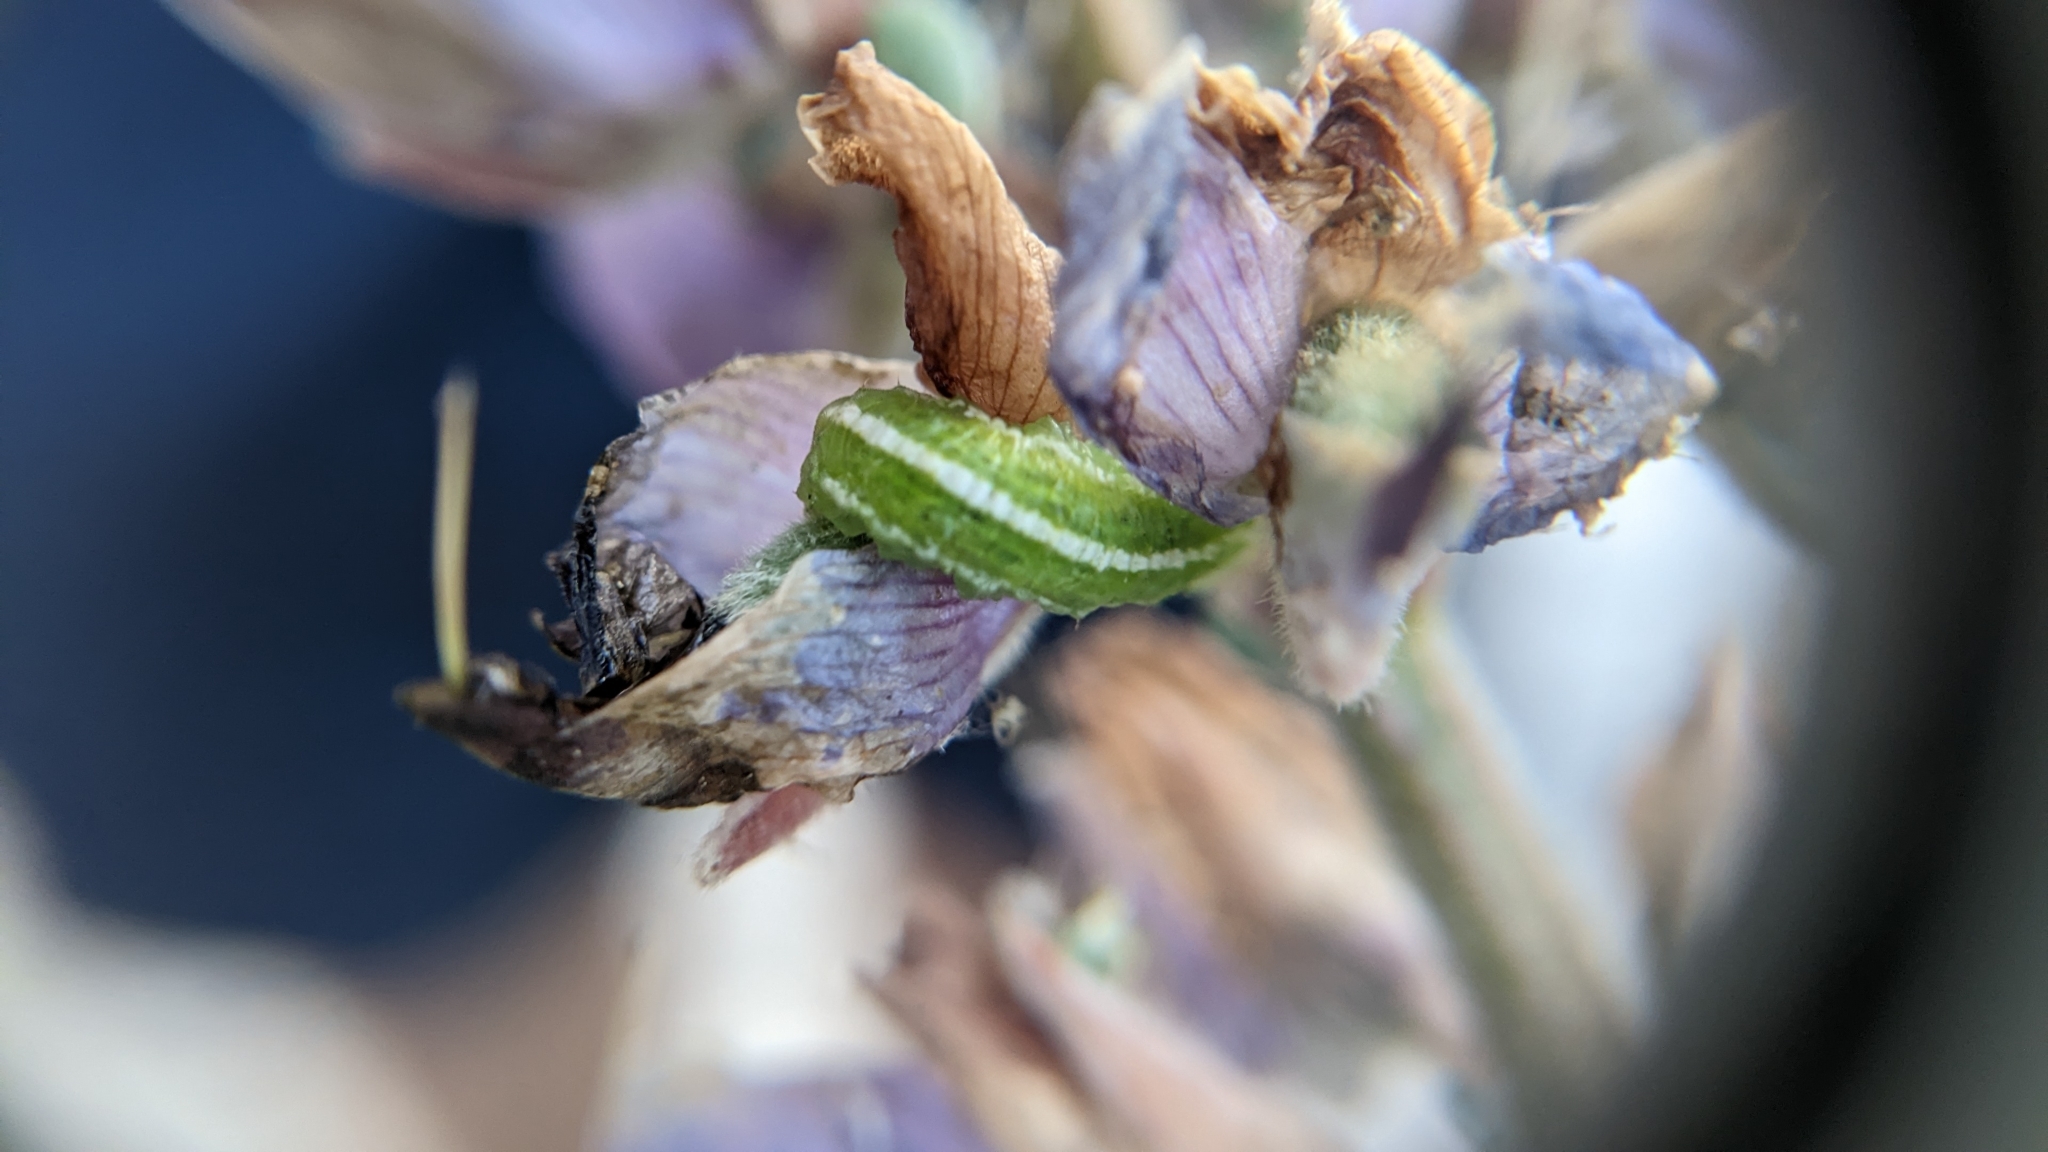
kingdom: Animalia
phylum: Arthropoda
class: Insecta
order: Diptera
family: Syrphidae
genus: Scaeva
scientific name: Scaeva affinis
